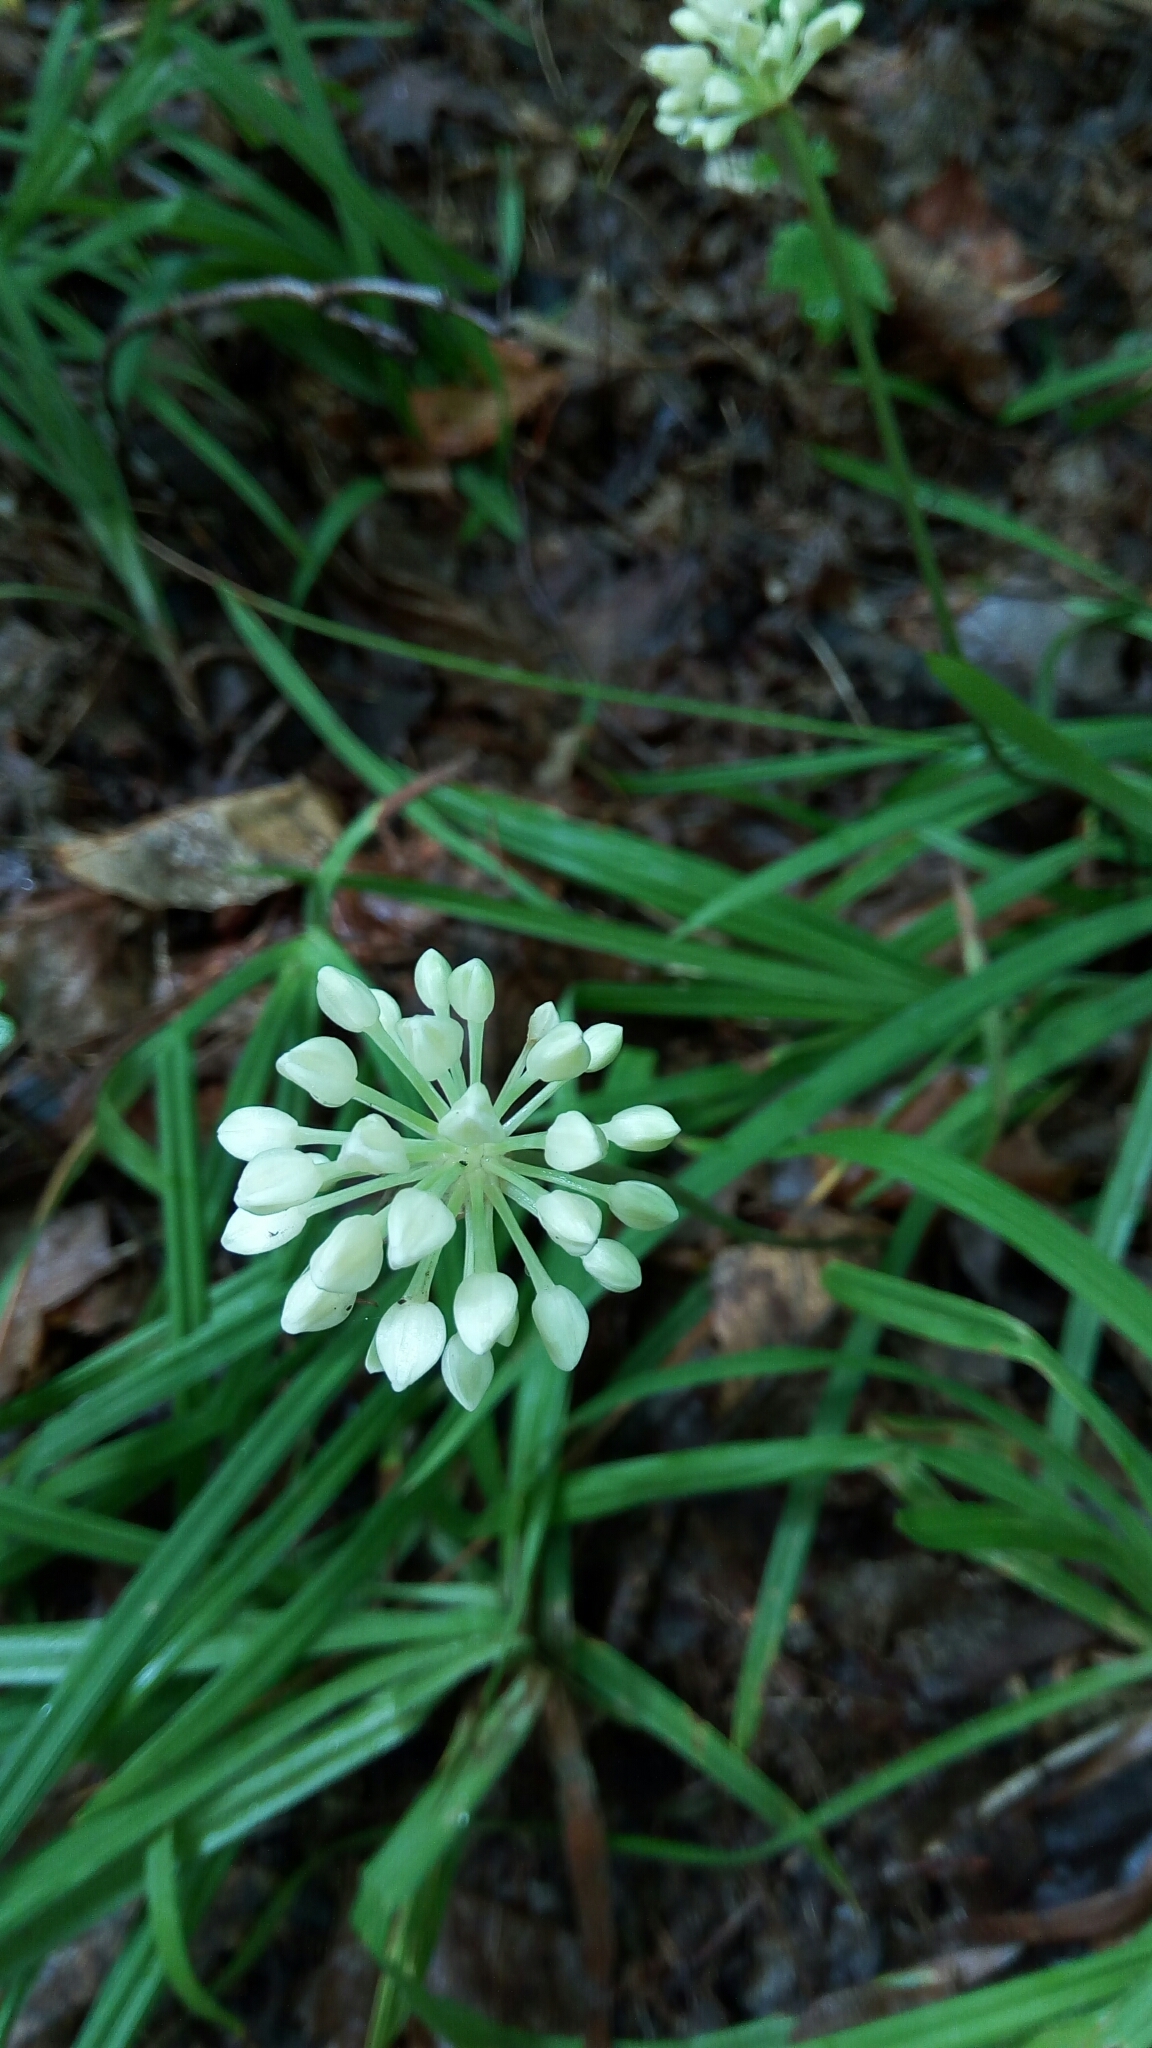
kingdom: Plantae
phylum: Tracheophyta
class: Liliopsida
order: Asparagales
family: Amaryllidaceae
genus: Allium
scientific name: Allium tricoccum
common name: Ramp
